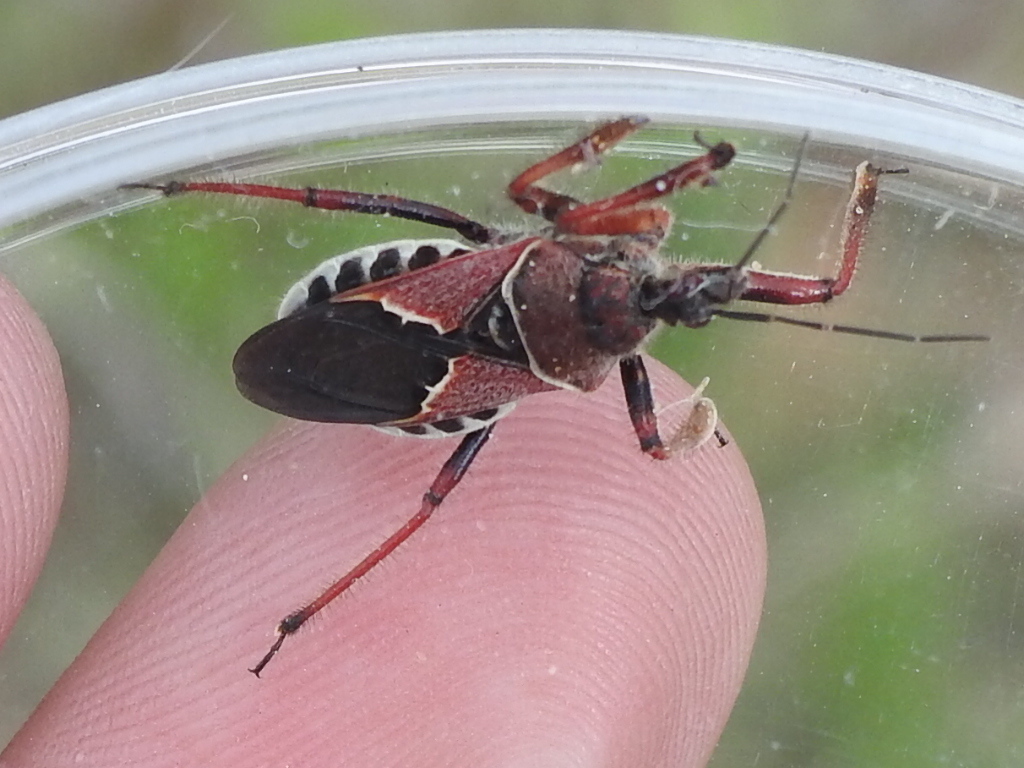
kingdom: Animalia
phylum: Arthropoda
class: Insecta
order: Hemiptera
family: Reduviidae
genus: Apiomerus
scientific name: Apiomerus spissipes
